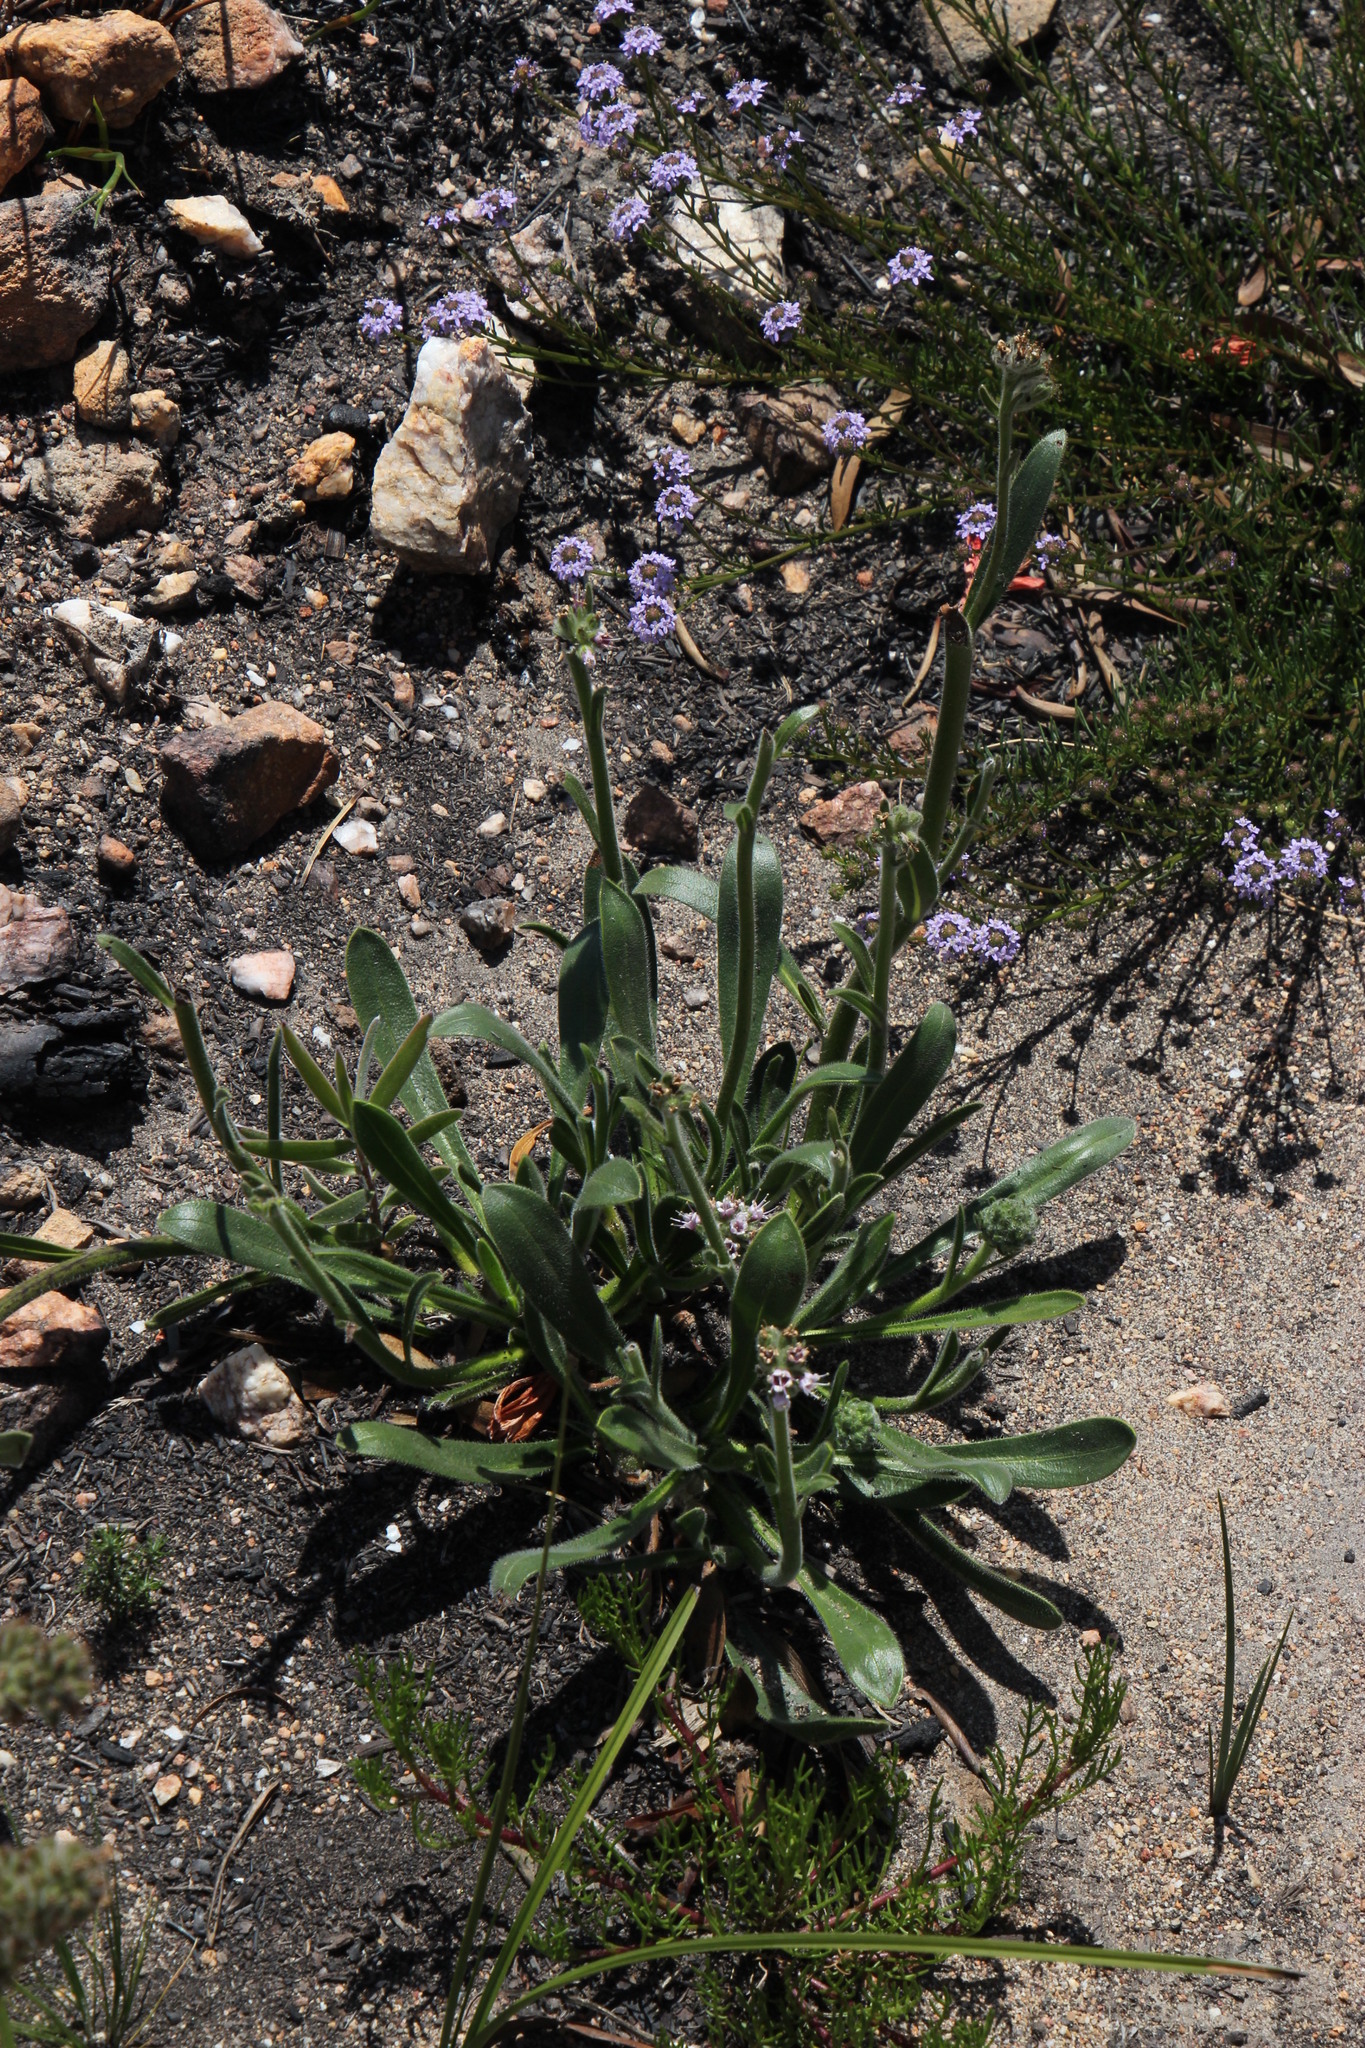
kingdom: Plantae
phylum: Tracheophyta
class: Magnoliopsida
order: Boraginales
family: Boraginaceae
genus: Lobostemon
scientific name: Lobostemon ecklonianus
